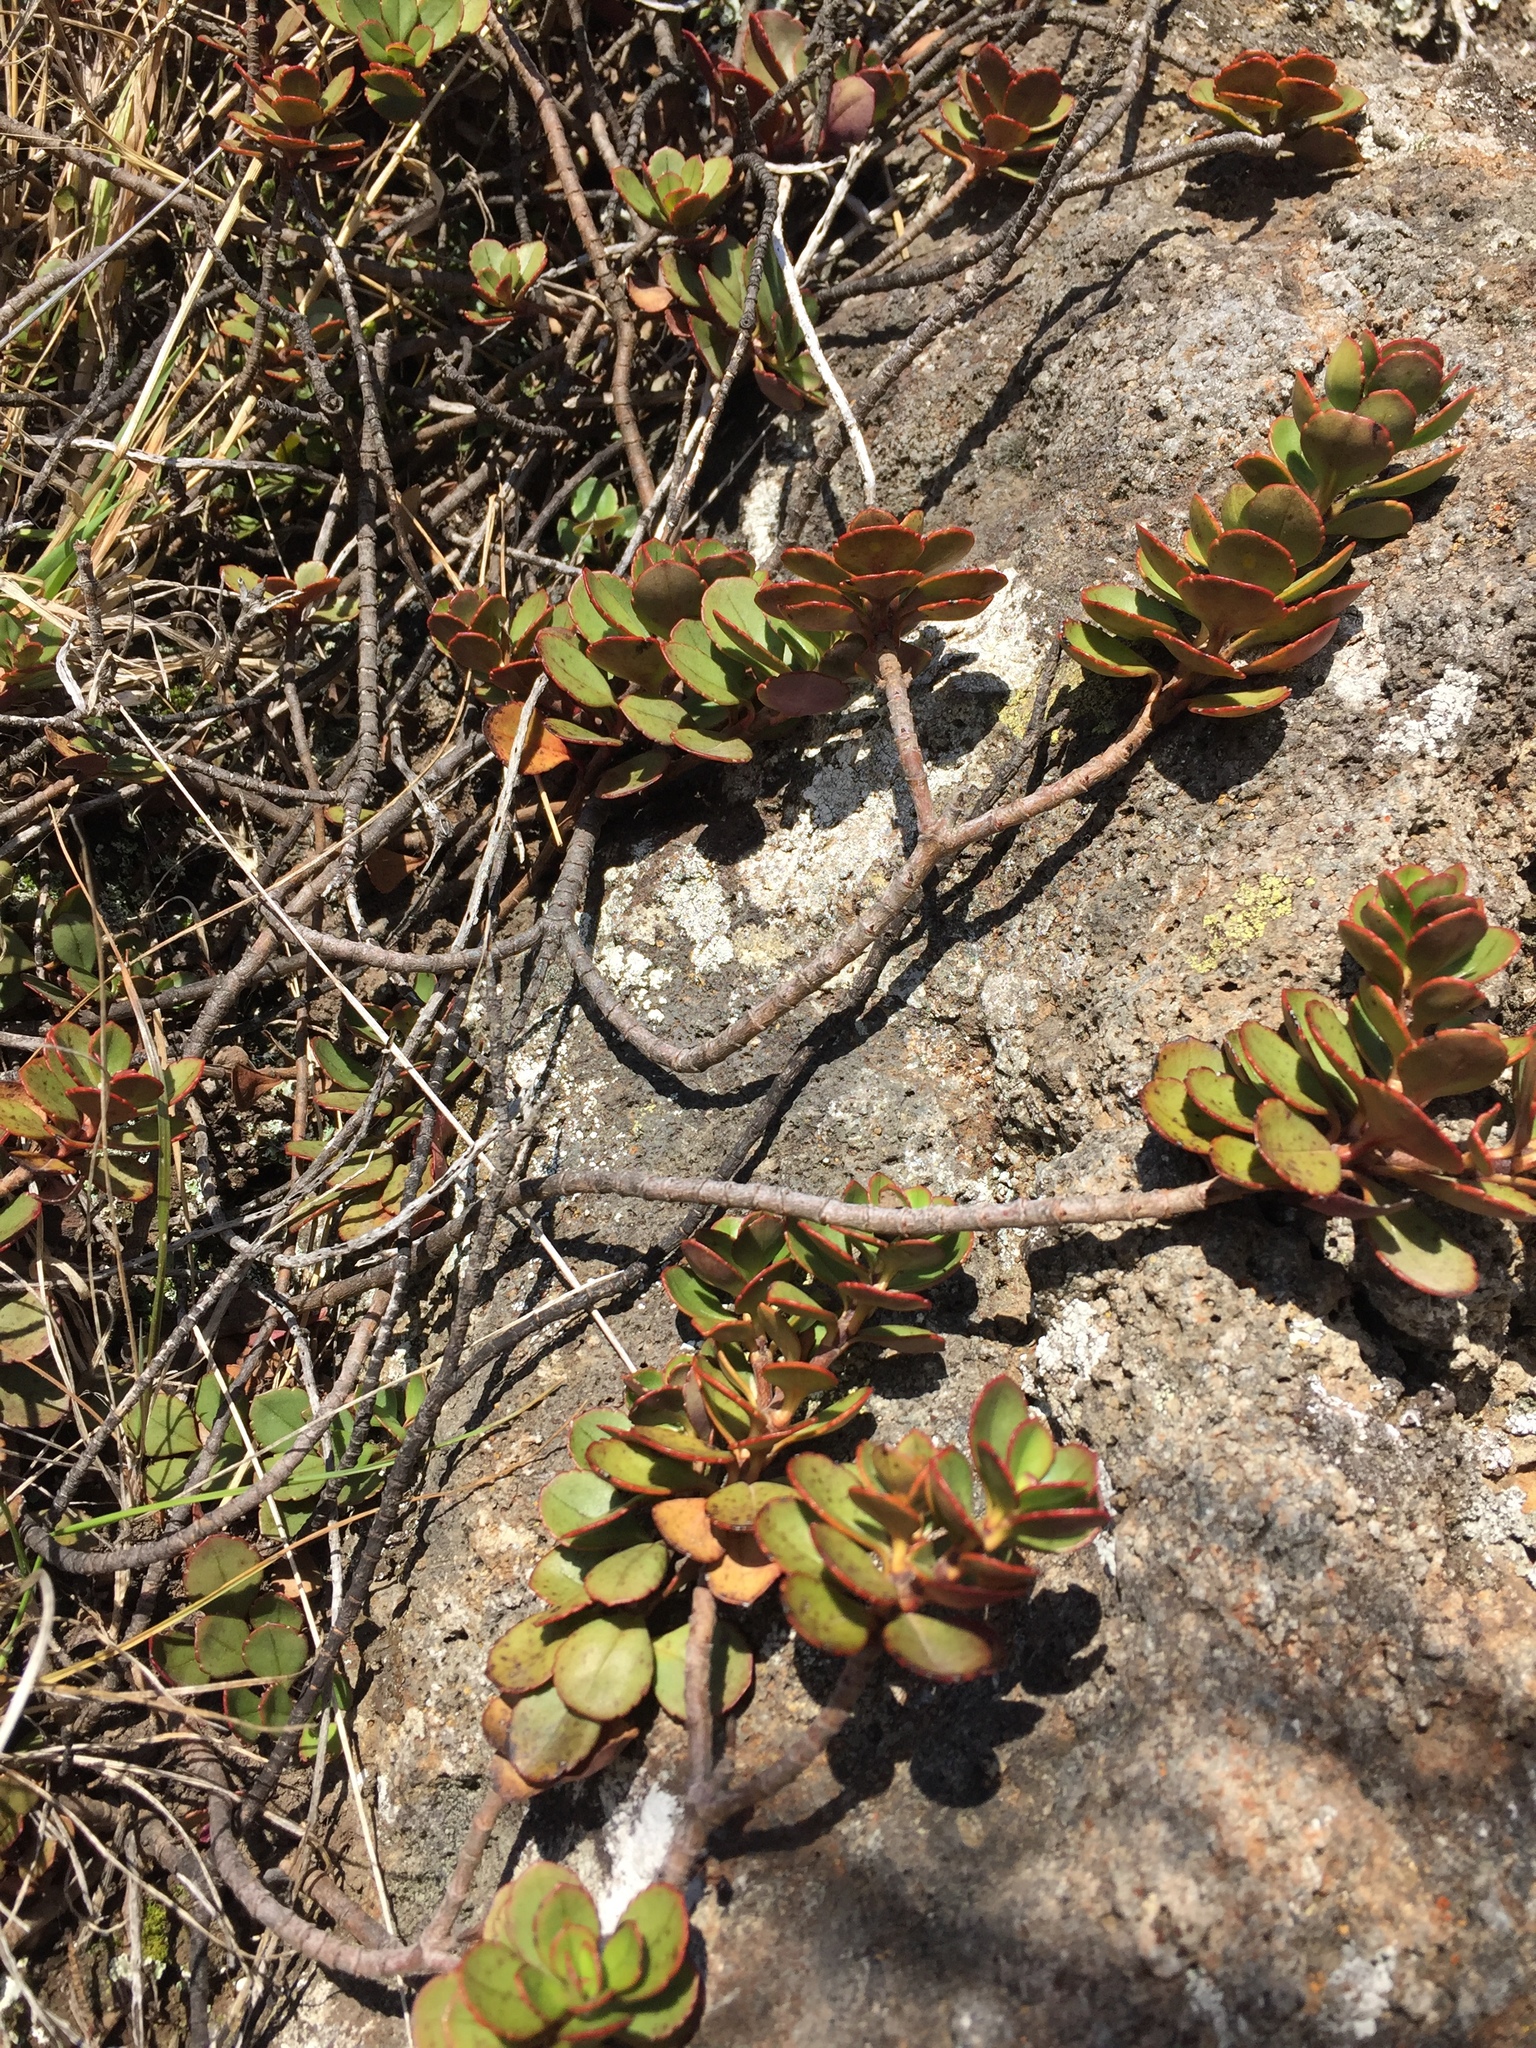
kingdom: Plantae
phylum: Tracheophyta
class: Magnoliopsida
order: Lamiales
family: Plantaginaceae
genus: Veronica
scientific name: Veronica lavaudiana
